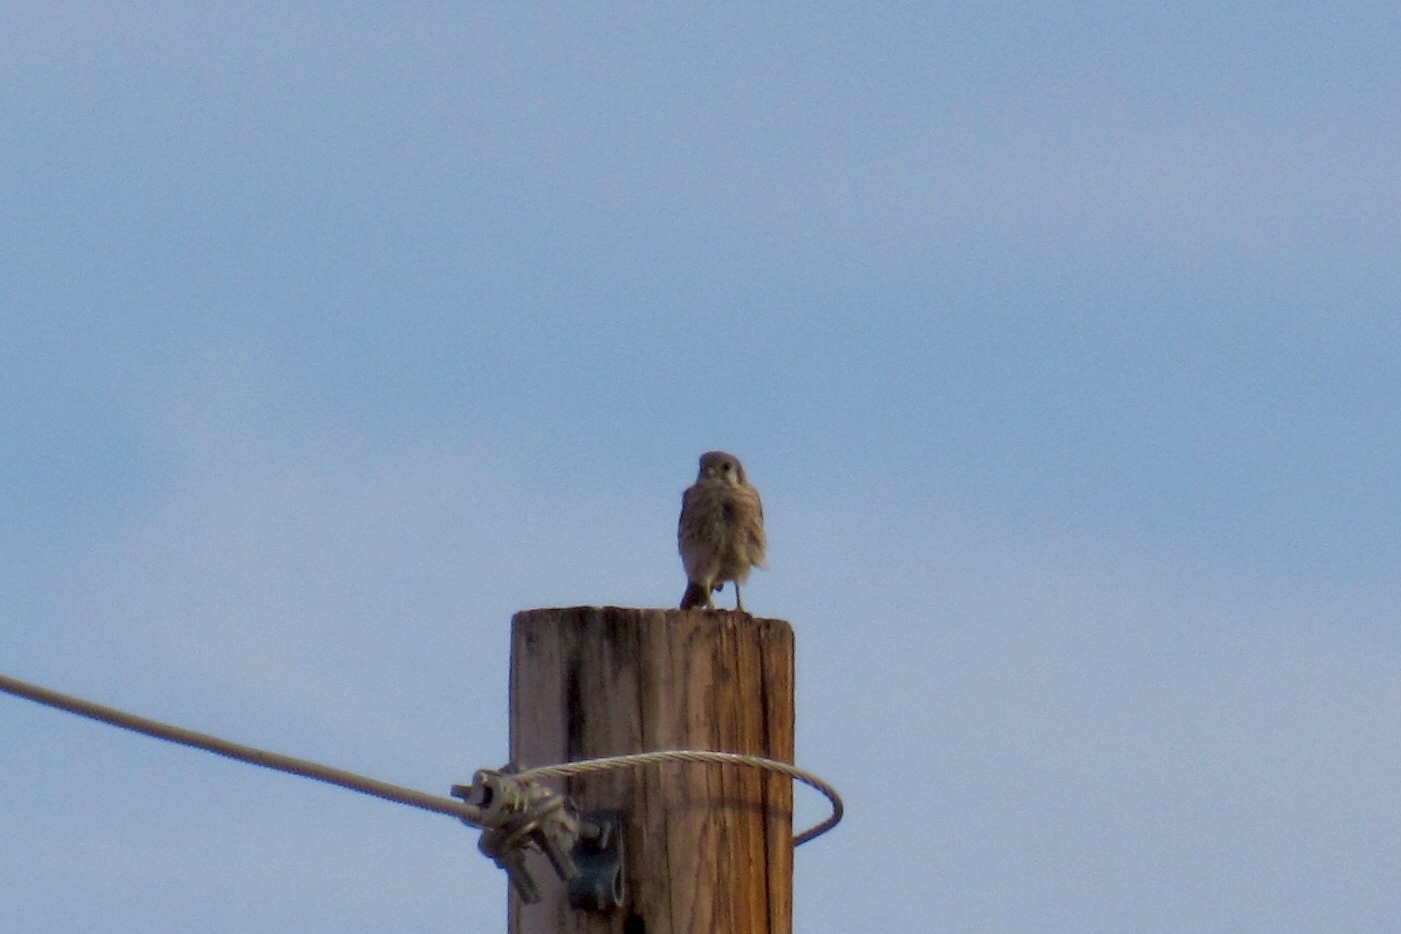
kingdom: Animalia
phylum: Chordata
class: Aves
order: Falconiformes
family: Falconidae
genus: Falco
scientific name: Falco sparverius
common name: American kestrel
